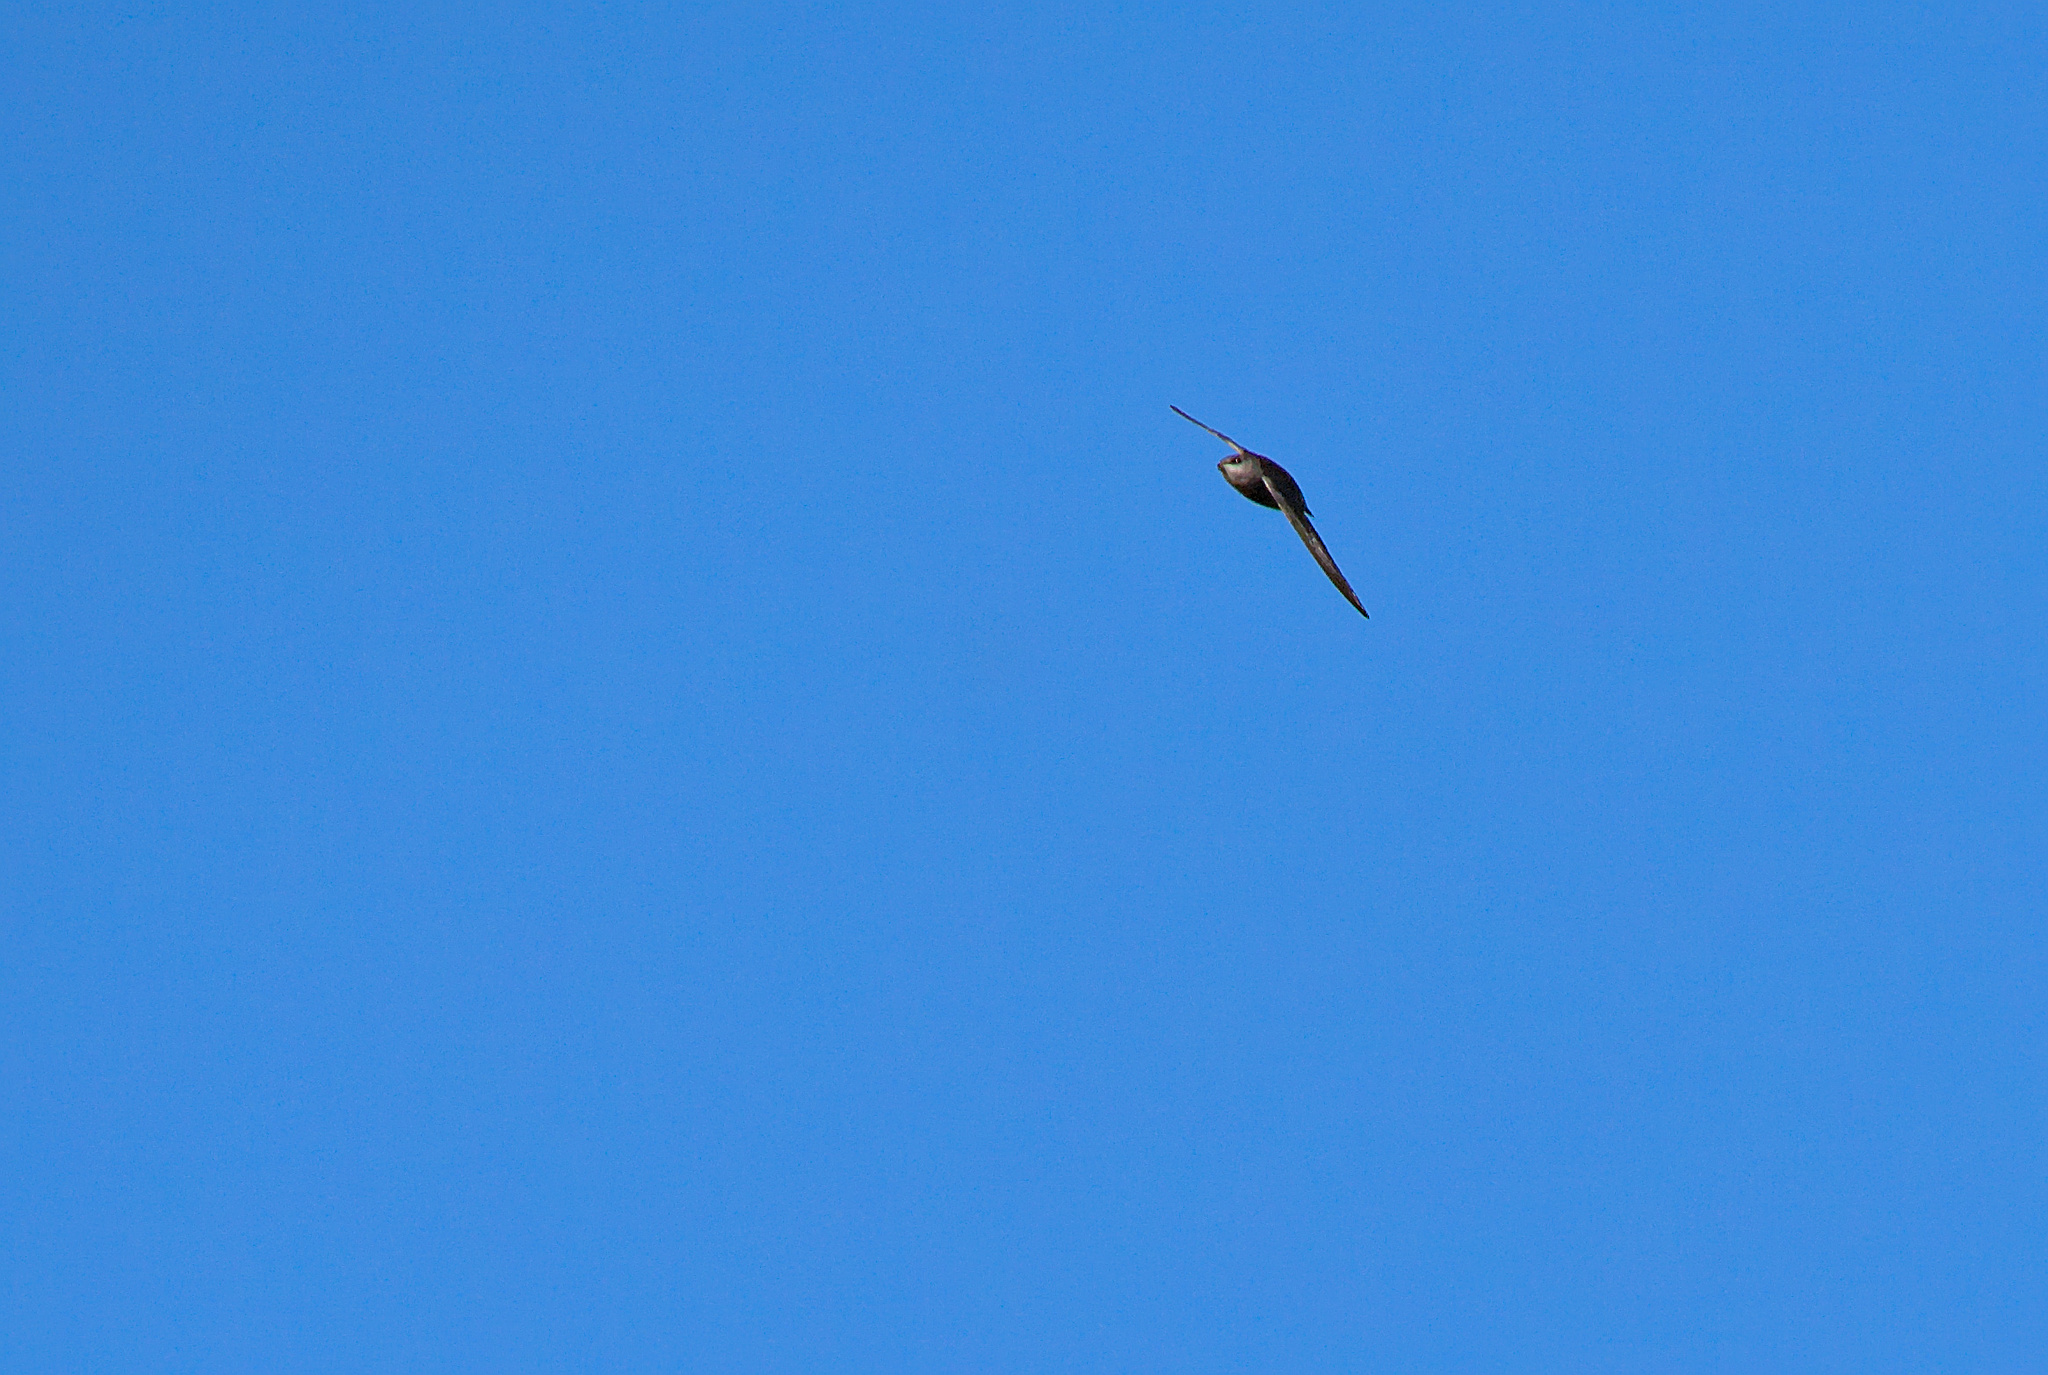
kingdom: Animalia
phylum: Chordata
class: Aves
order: Apodiformes
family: Apodidae
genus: Chaetura
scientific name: Chaetura pelagica
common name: Chimney swift
